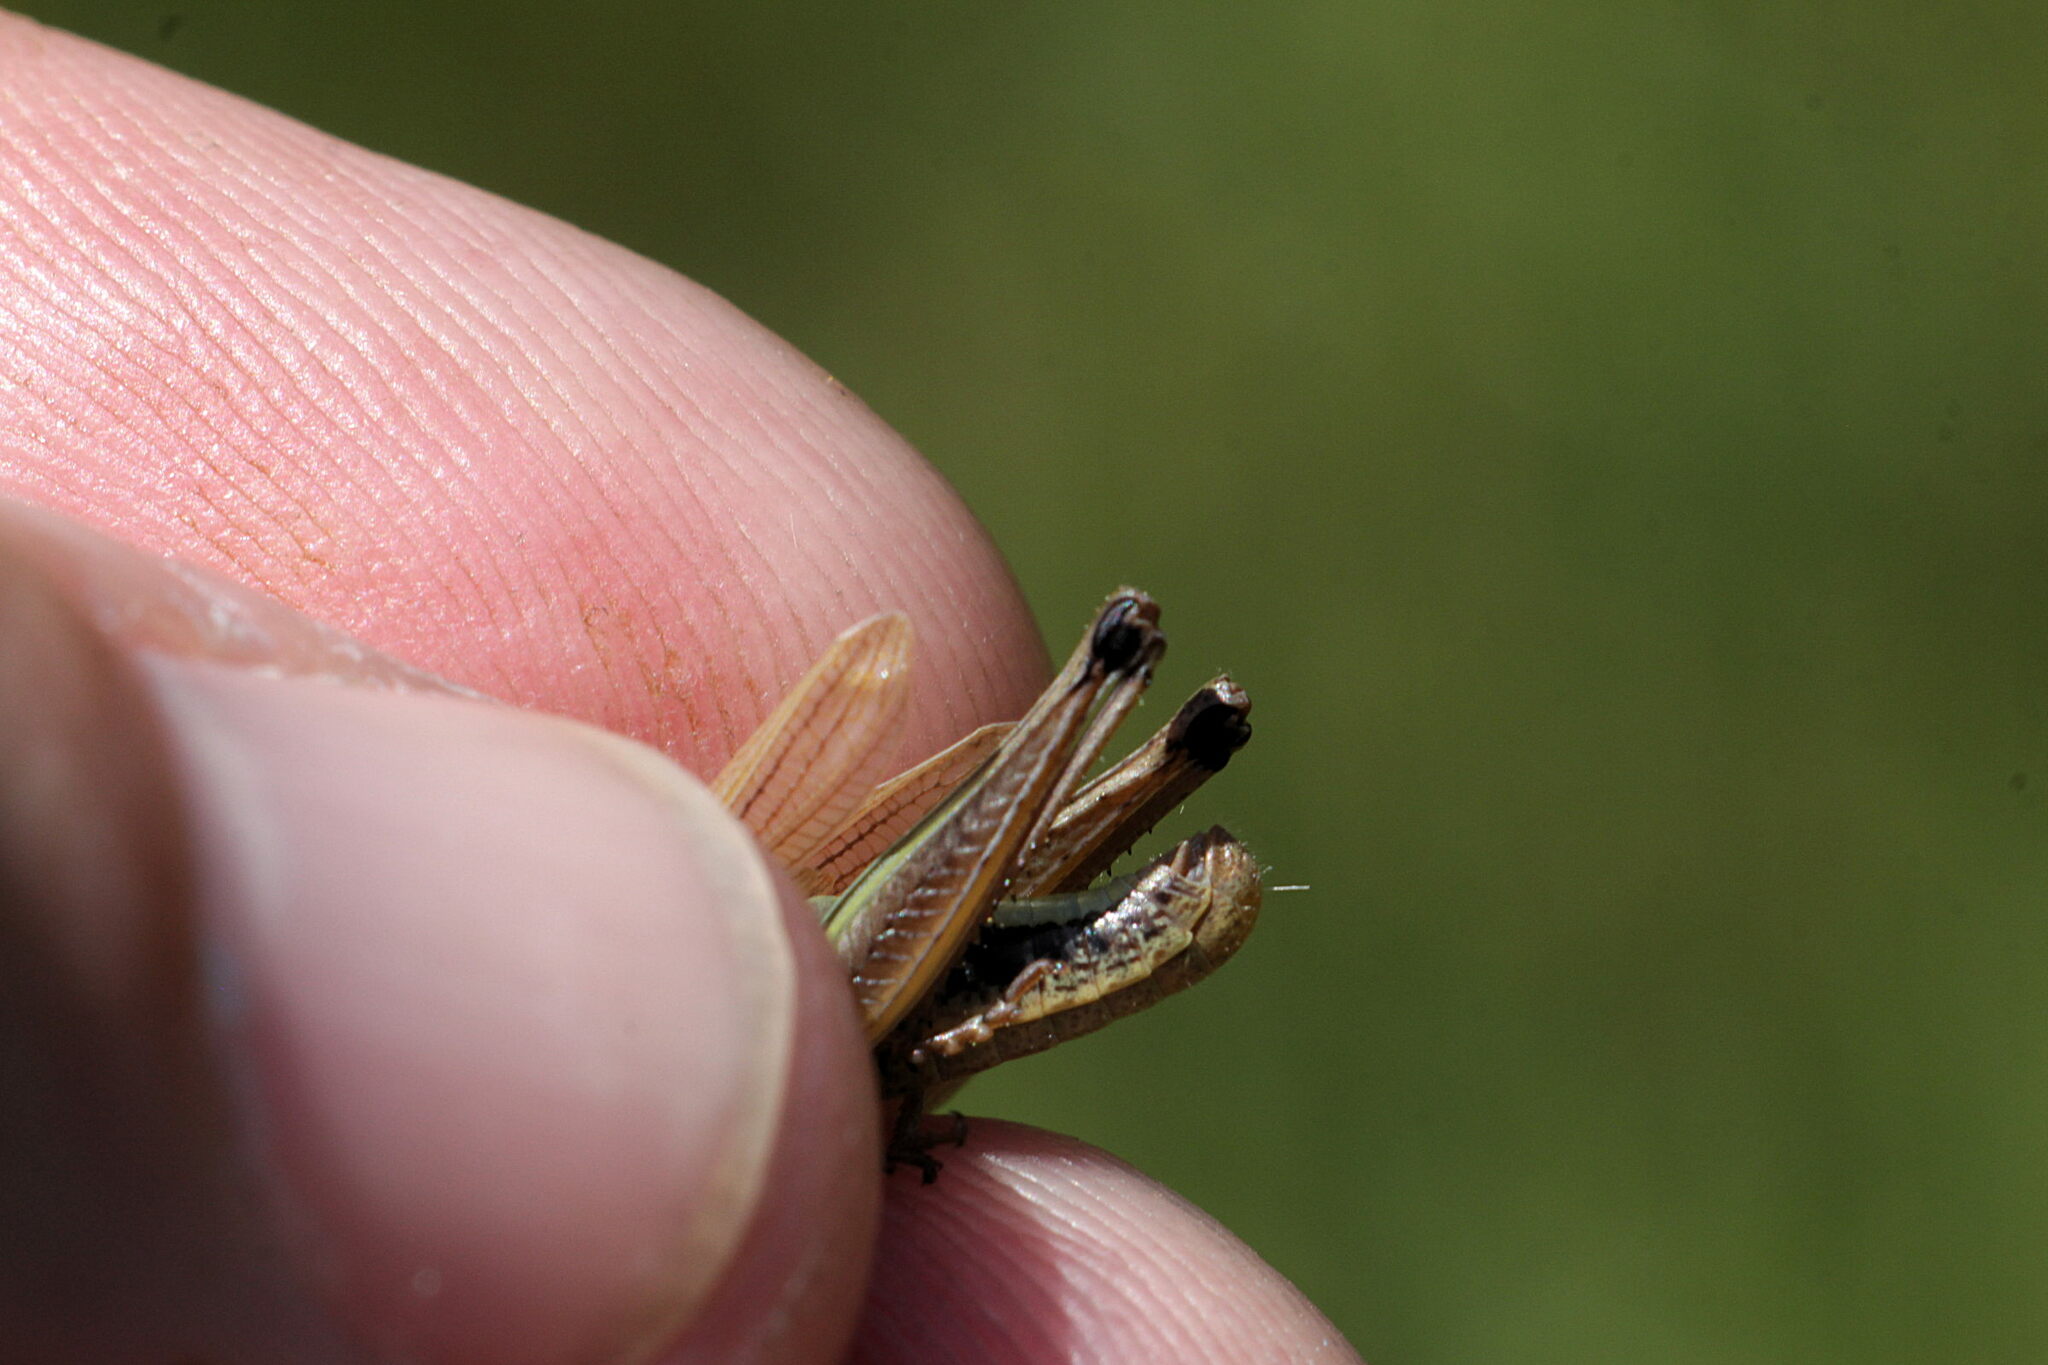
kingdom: Animalia
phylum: Arthropoda
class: Insecta
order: Orthoptera
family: Acrididae
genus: Pseudochorthippus
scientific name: Pseudochorthippus parallelus
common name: Meadow grasshopper
